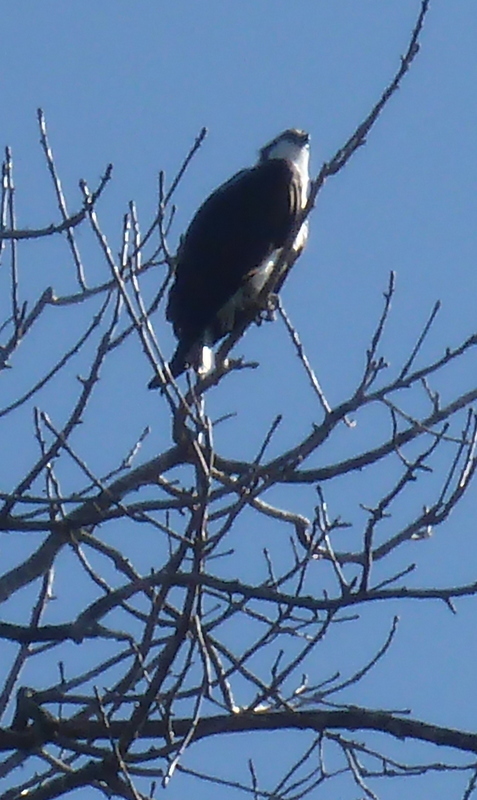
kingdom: Animalia
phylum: Chordata
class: Aves
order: Accipitriformes
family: Pandionidae
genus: Pandion
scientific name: Pandion haliaetus
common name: Osprey
